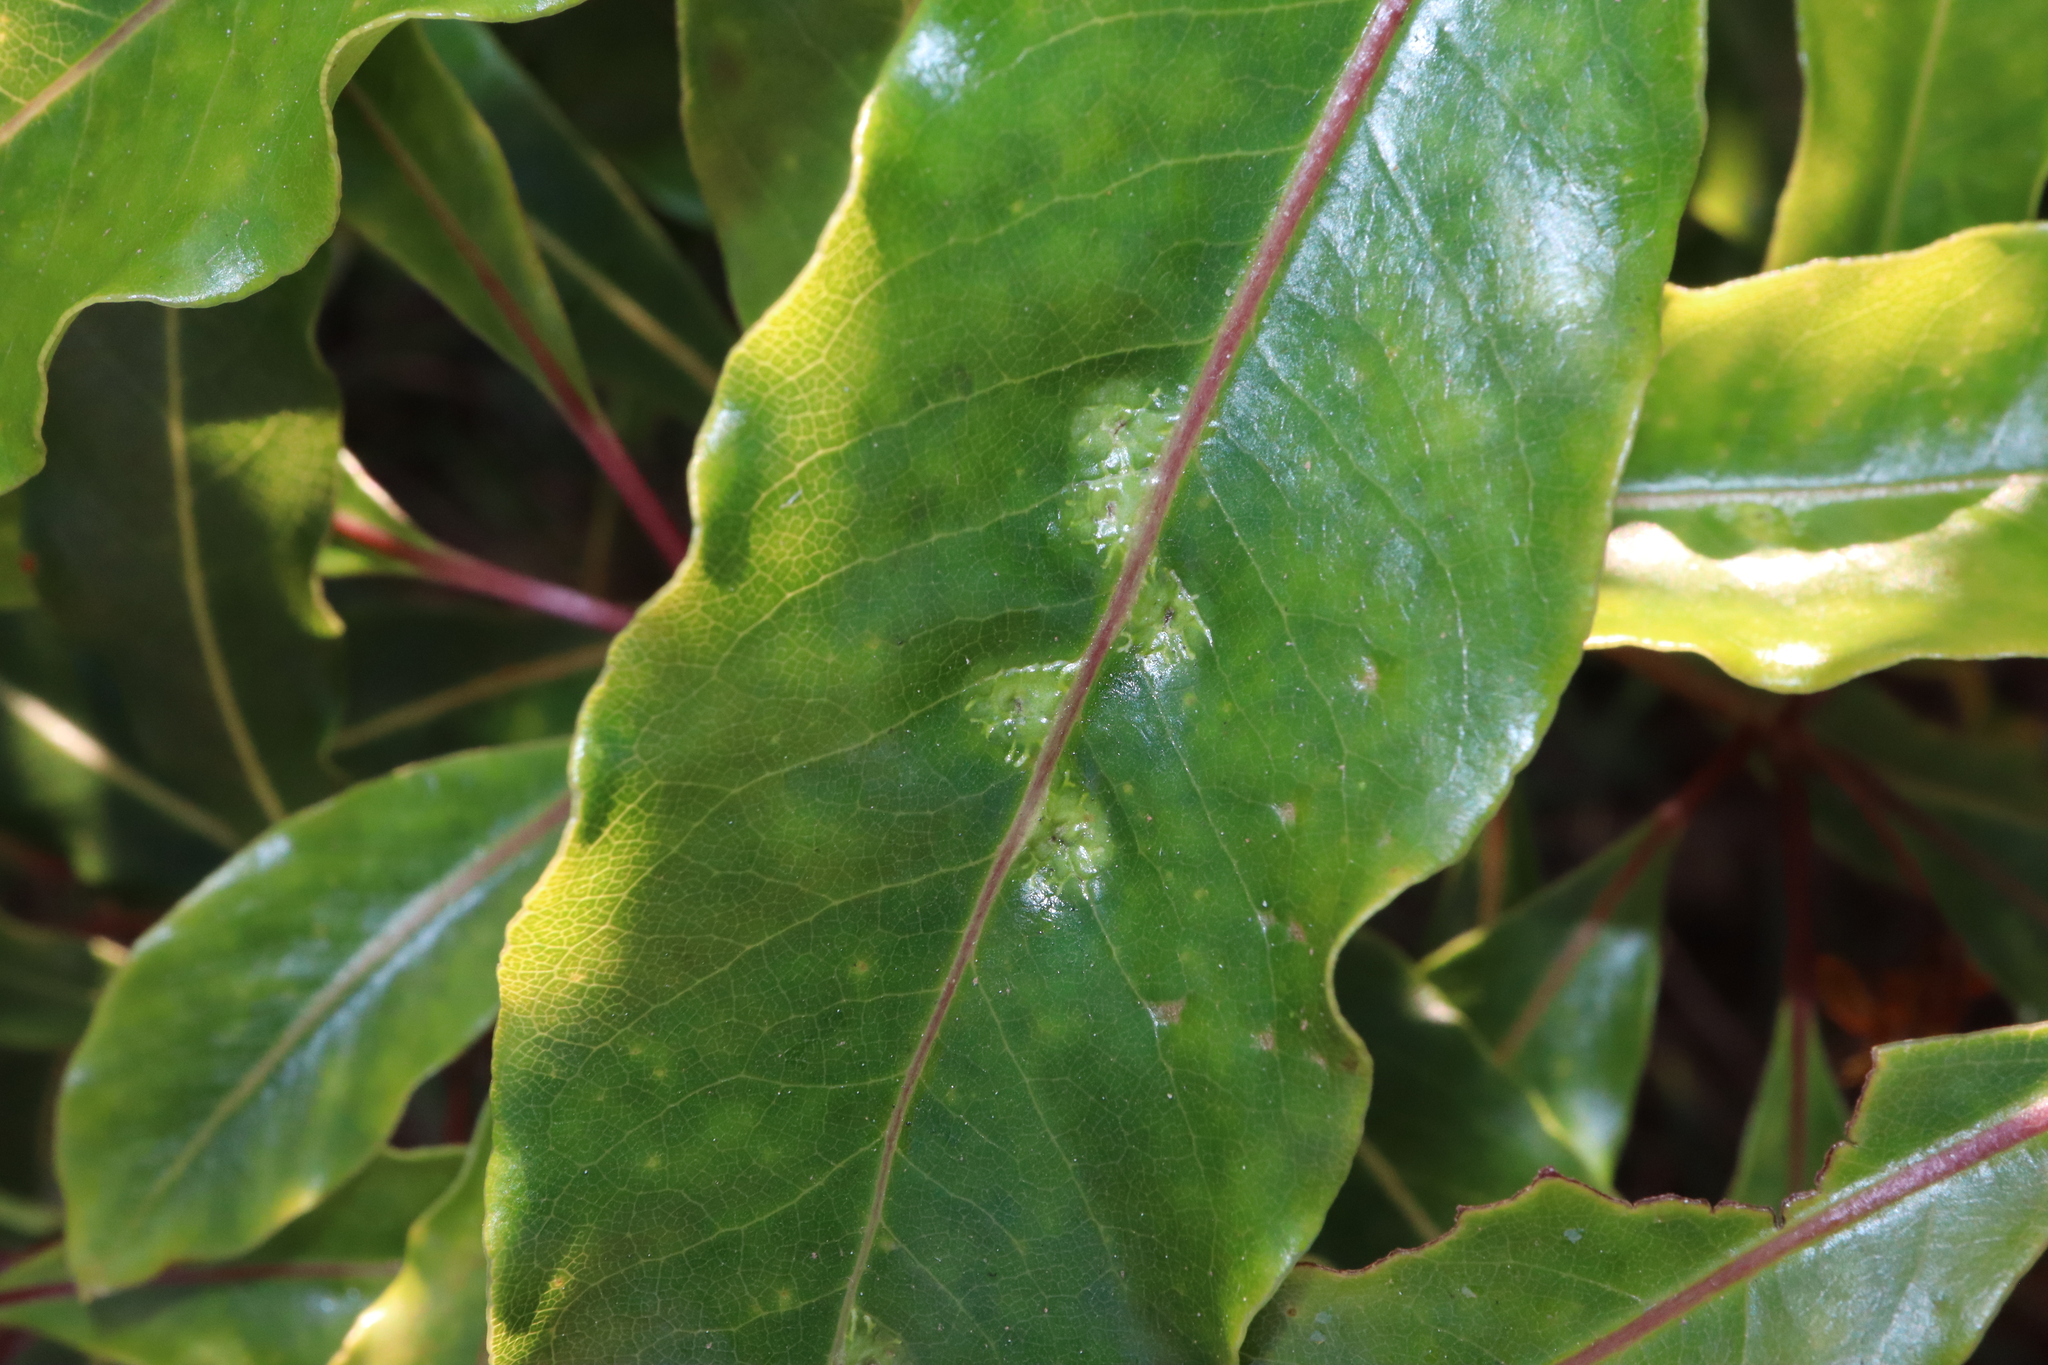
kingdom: Animalia
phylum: Arthropoda
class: Insecta
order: Diptera
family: Agromyzidae
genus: Phytoliriomyza
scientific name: Phytoliriomyza pittosporophylli
